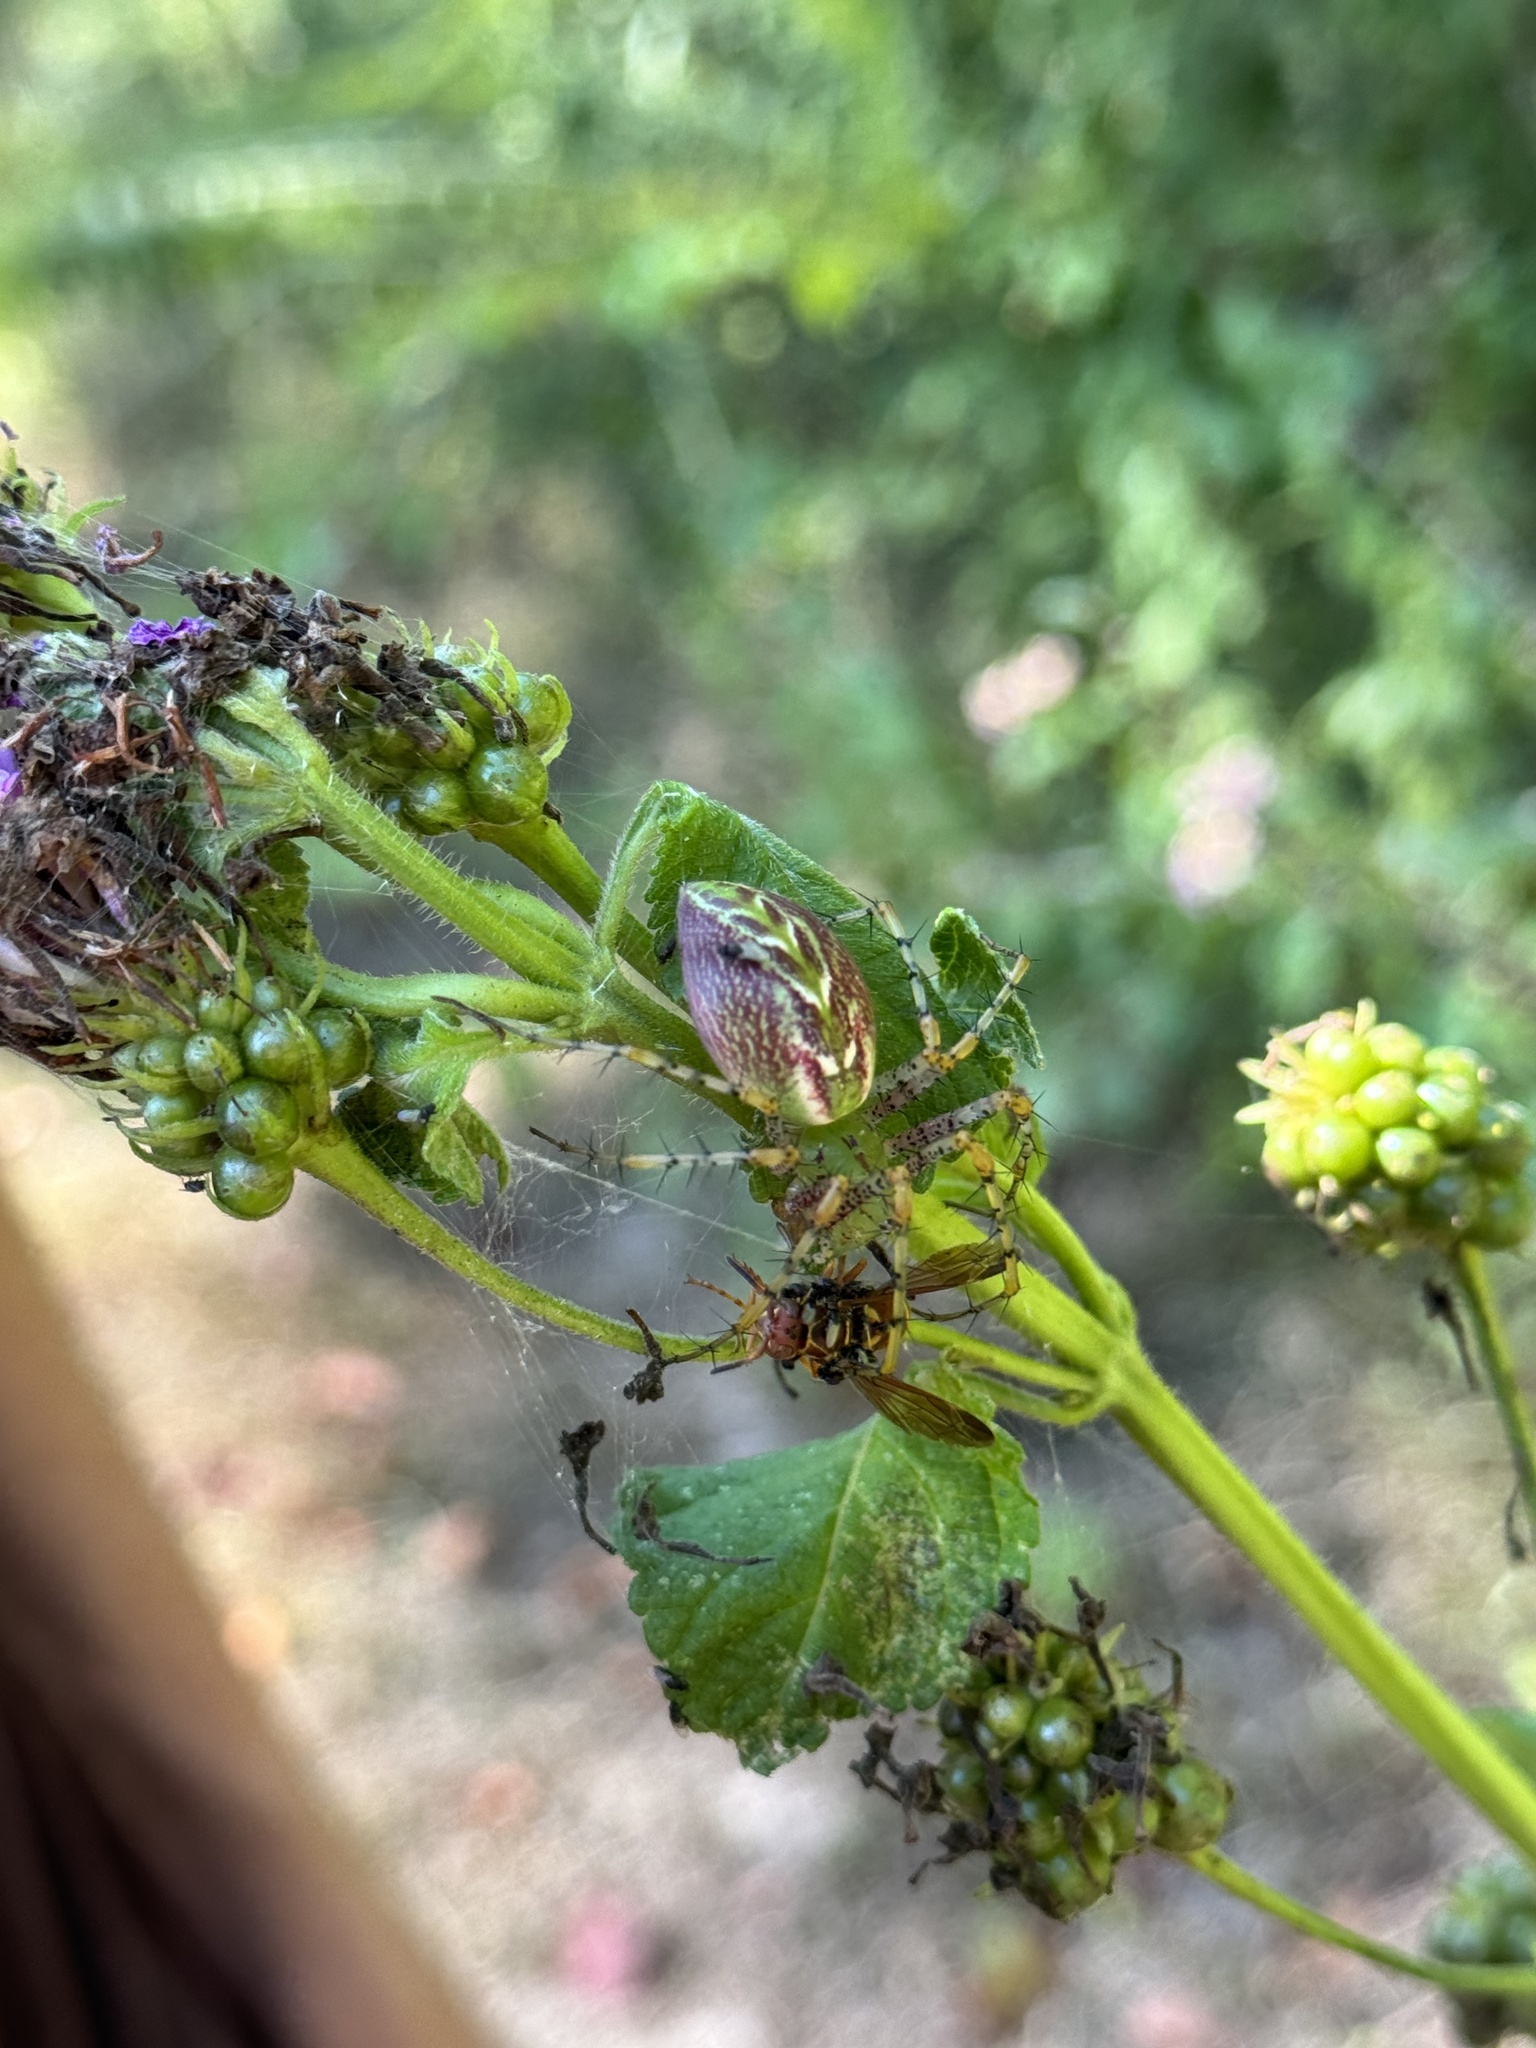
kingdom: Animalia
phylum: Arthropoda
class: Arachnida
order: Araneae
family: Oxyopidae
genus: Peucetia
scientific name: Peucetia viridans
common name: Lynx spiders
